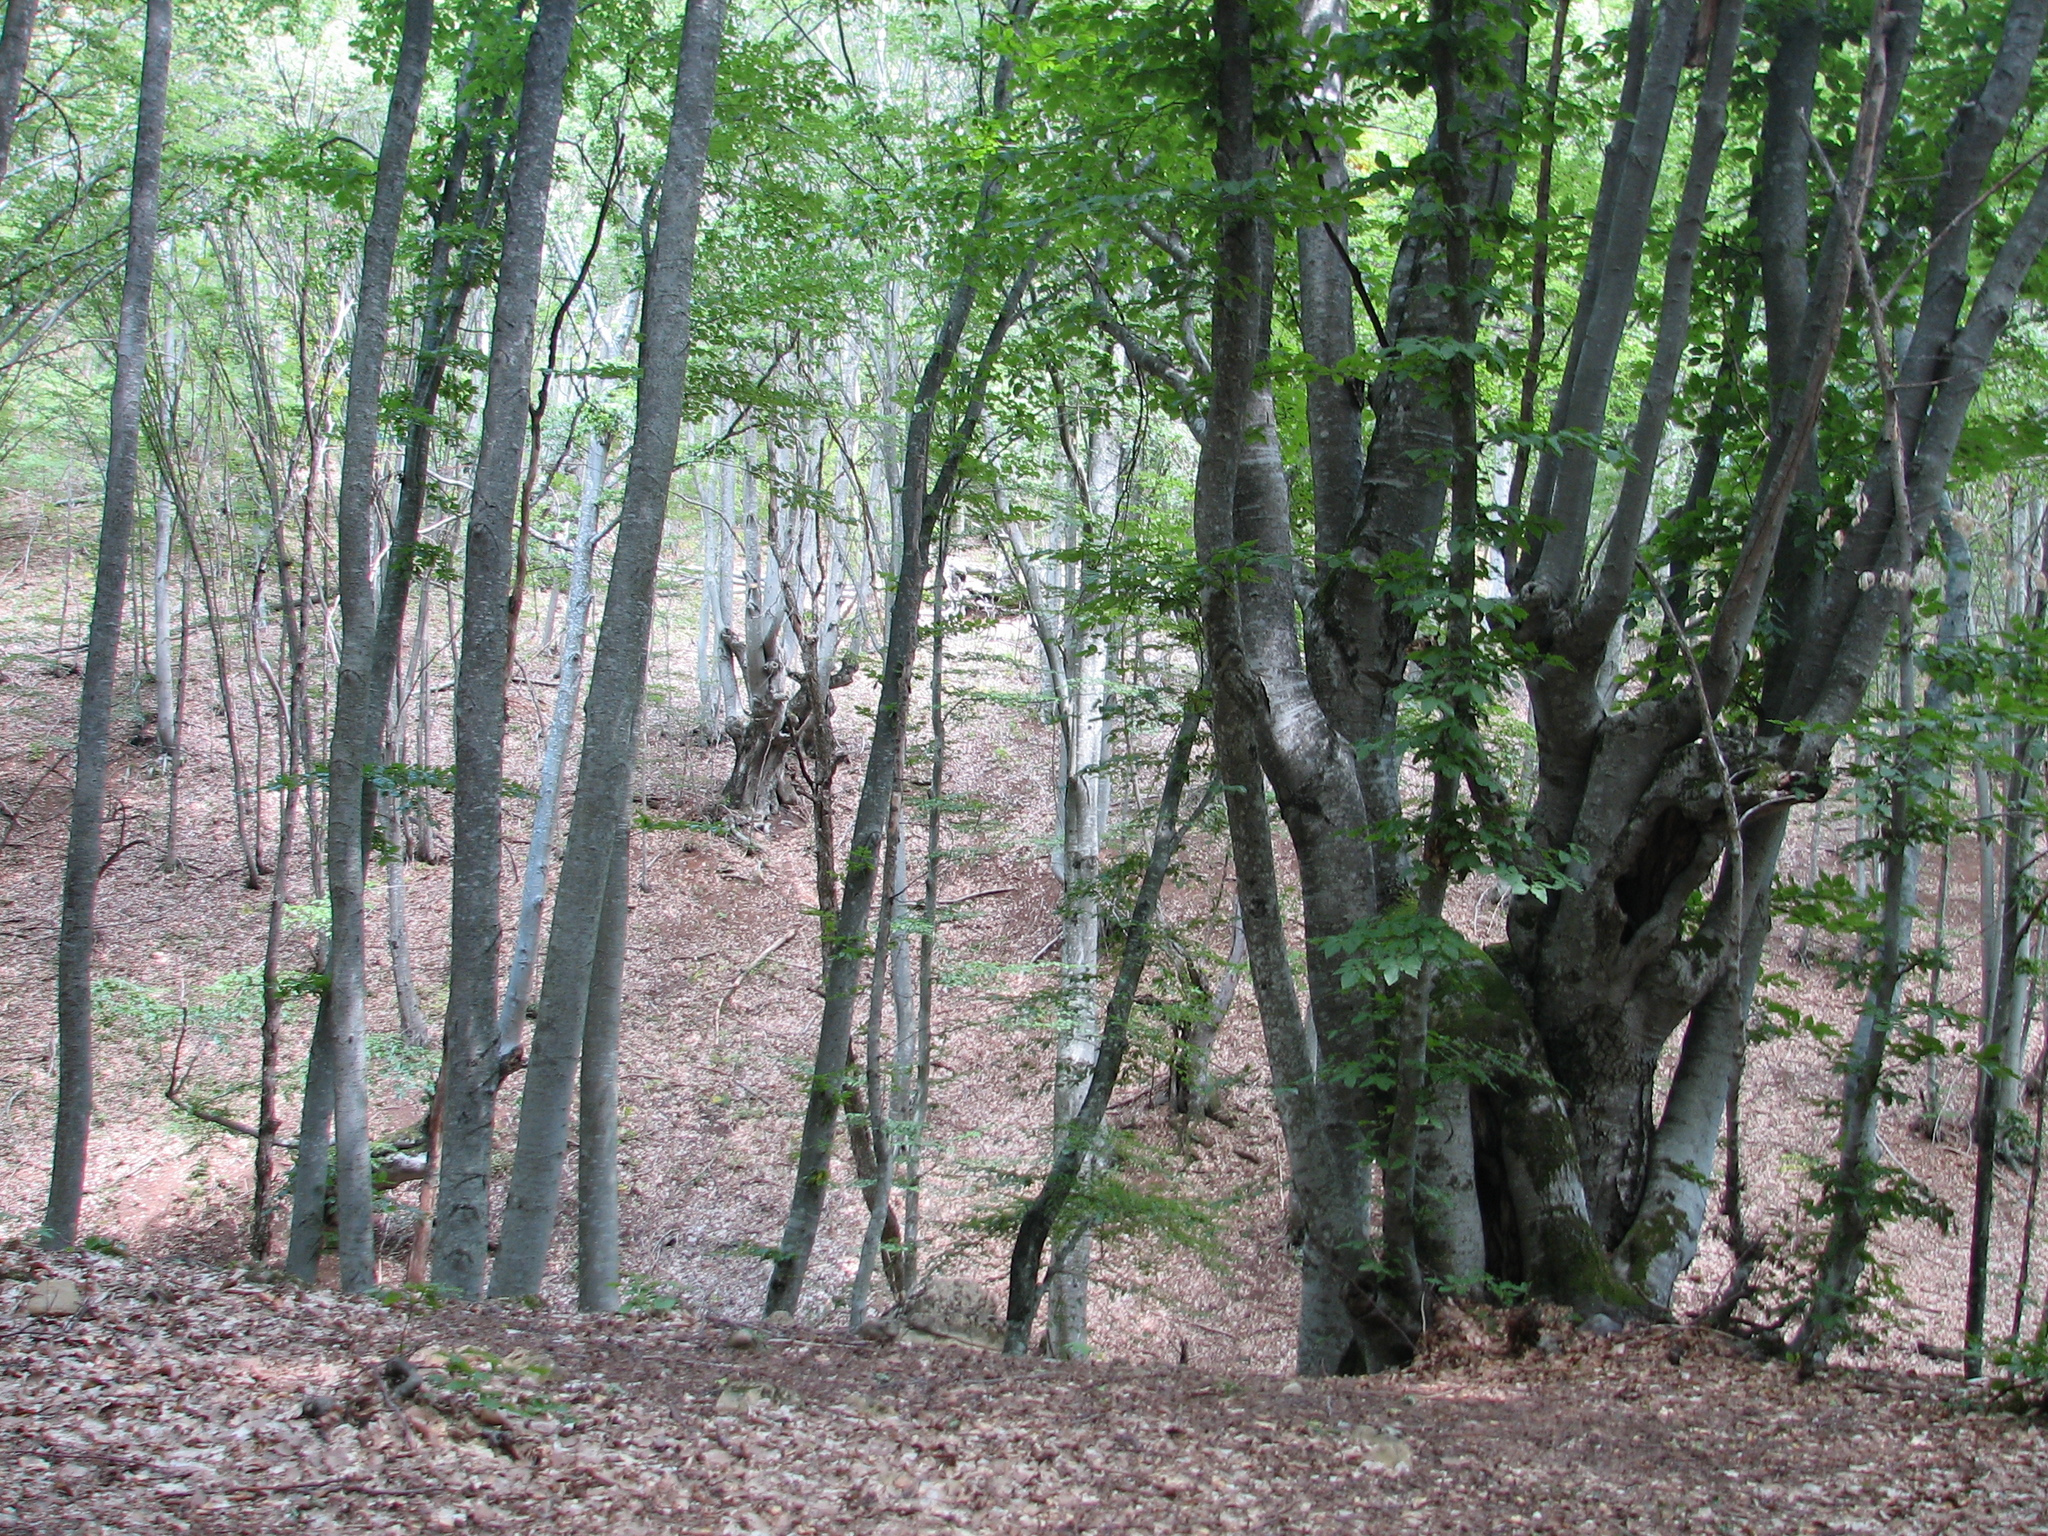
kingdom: Plantae
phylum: Tracheophyta
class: Magnoliopsida
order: Fagales
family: Fagaceae
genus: Fagus
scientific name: Fagus taurica
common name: Crimean beech
